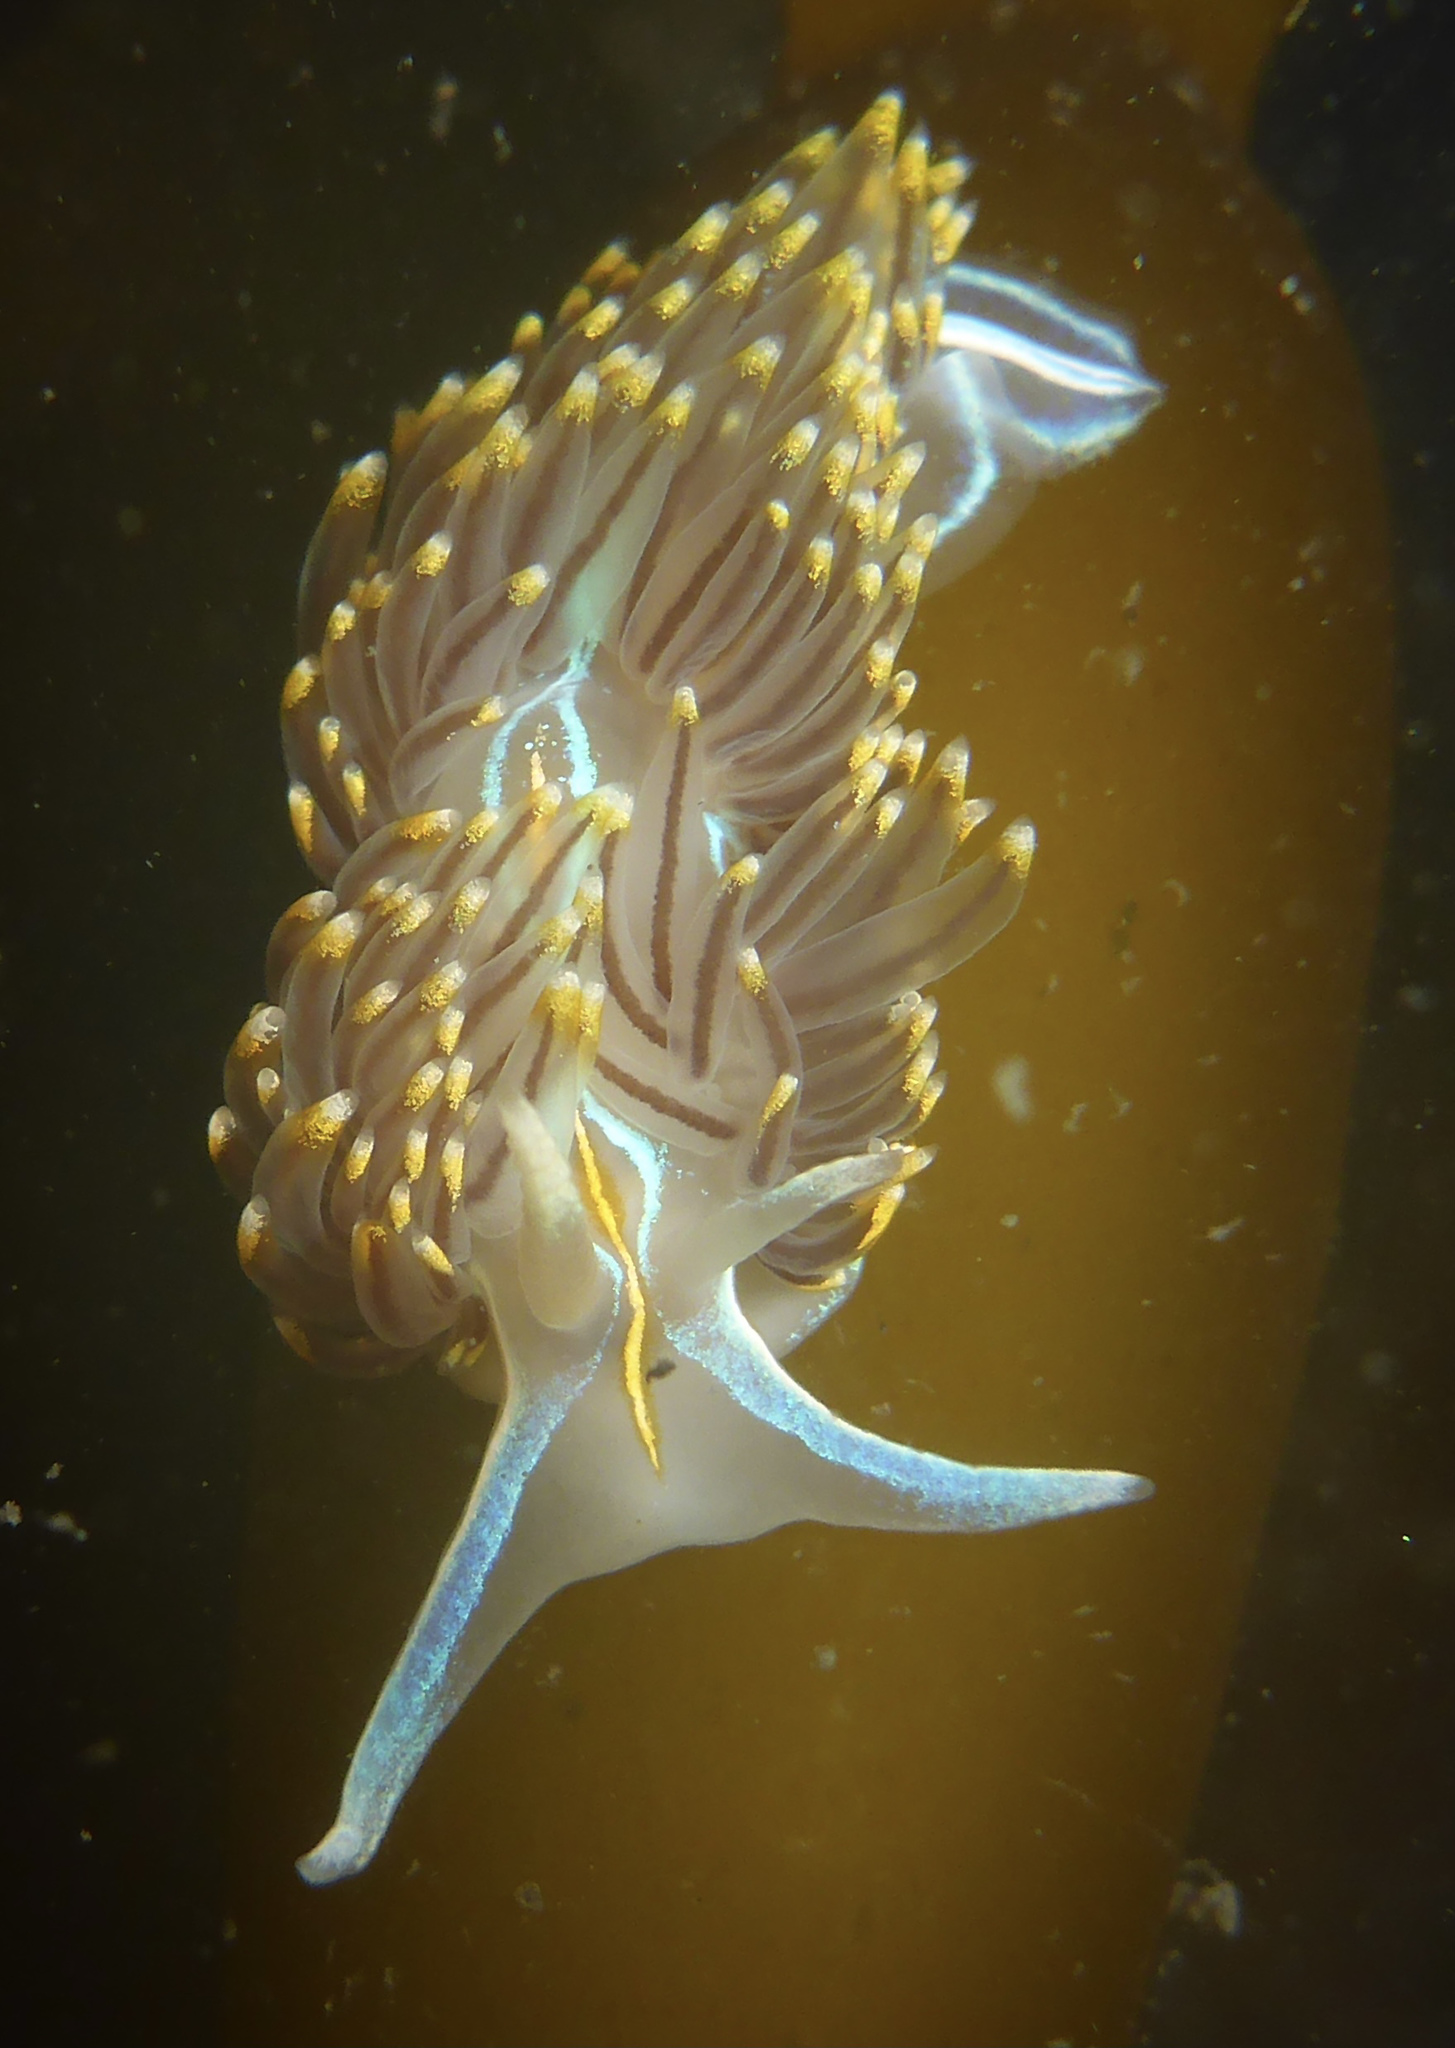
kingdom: Animalia
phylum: Mollusca
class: Gastropoda
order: Nudibranchia
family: Myrrhinidae
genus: Hermissenda
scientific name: Hermissenda opalescens
